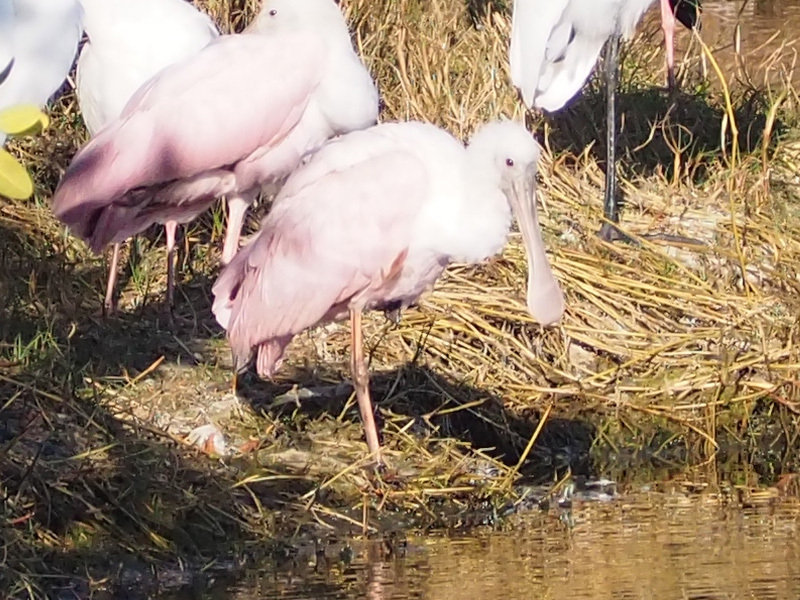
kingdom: Animalia
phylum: Chordata
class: Aves
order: Pelecaniformes
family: Threskiornithidae
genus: Platalea
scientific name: Platalea ajaja
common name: Roseate spoonbill
